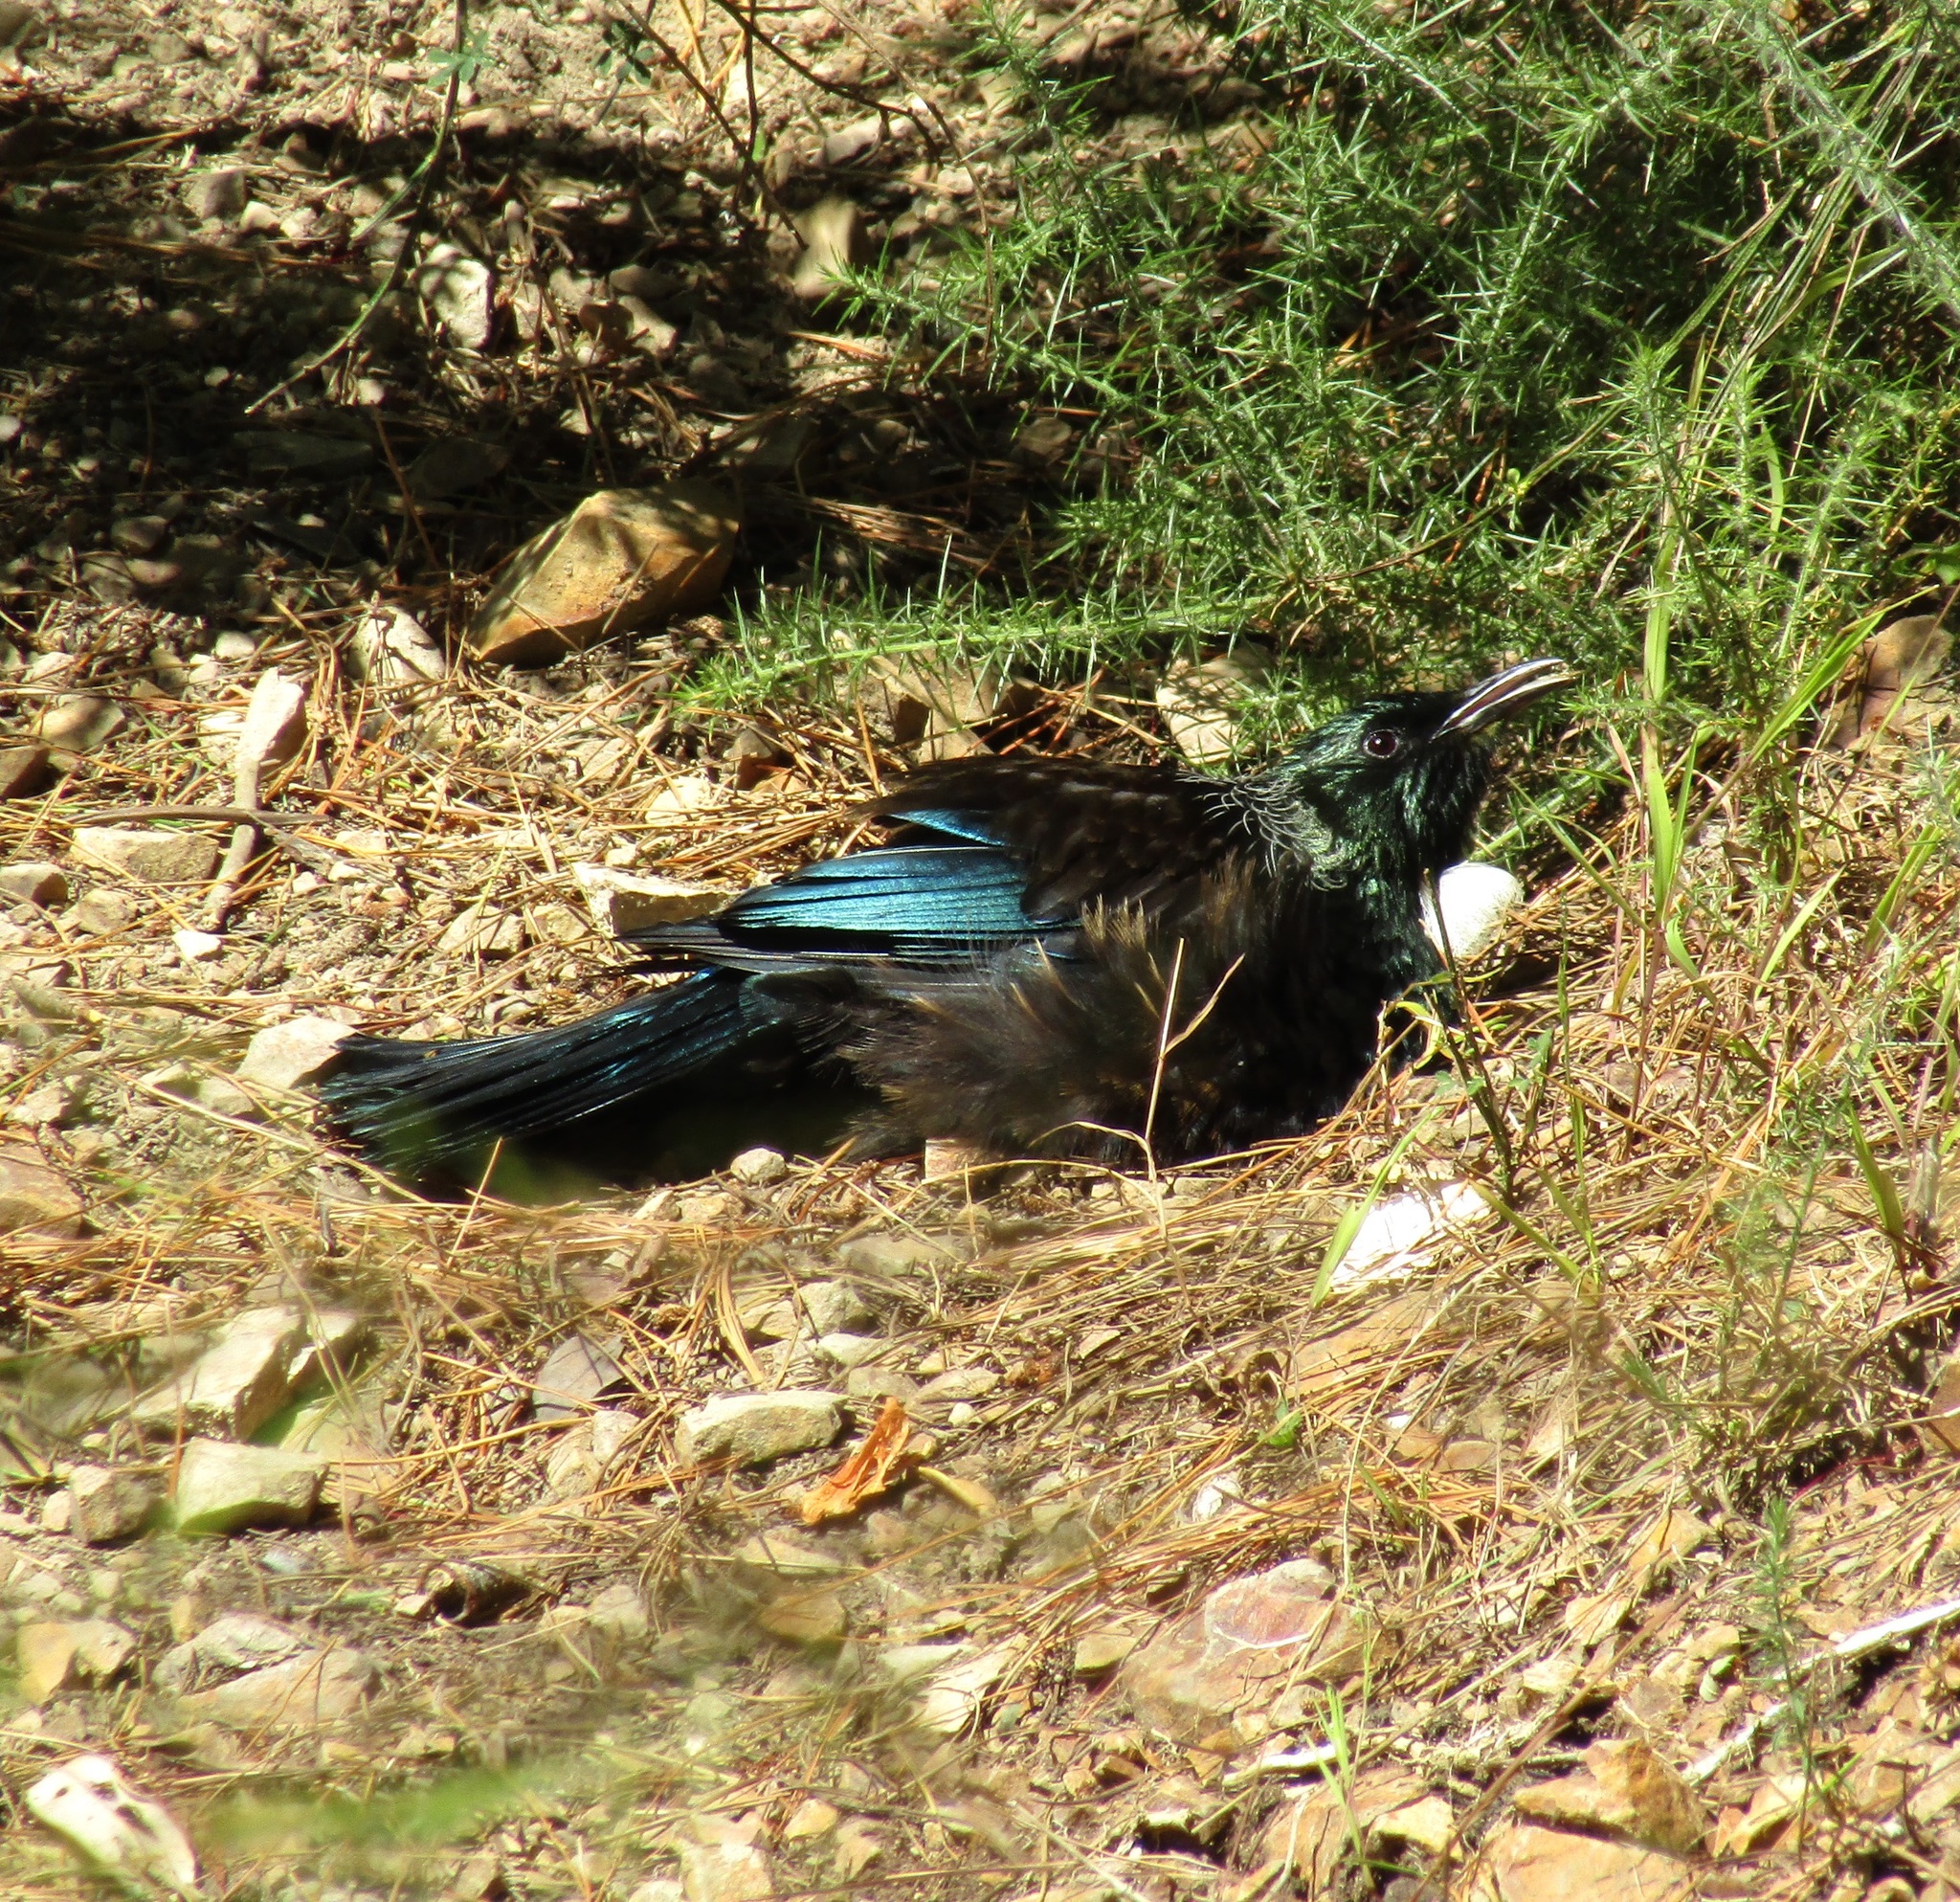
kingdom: Animalia
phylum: Chordata
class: Aves
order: Passeriformes
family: Meliphagidae
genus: Prosthemadera
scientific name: Prosthemadera novaeseelandiae
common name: Tui
